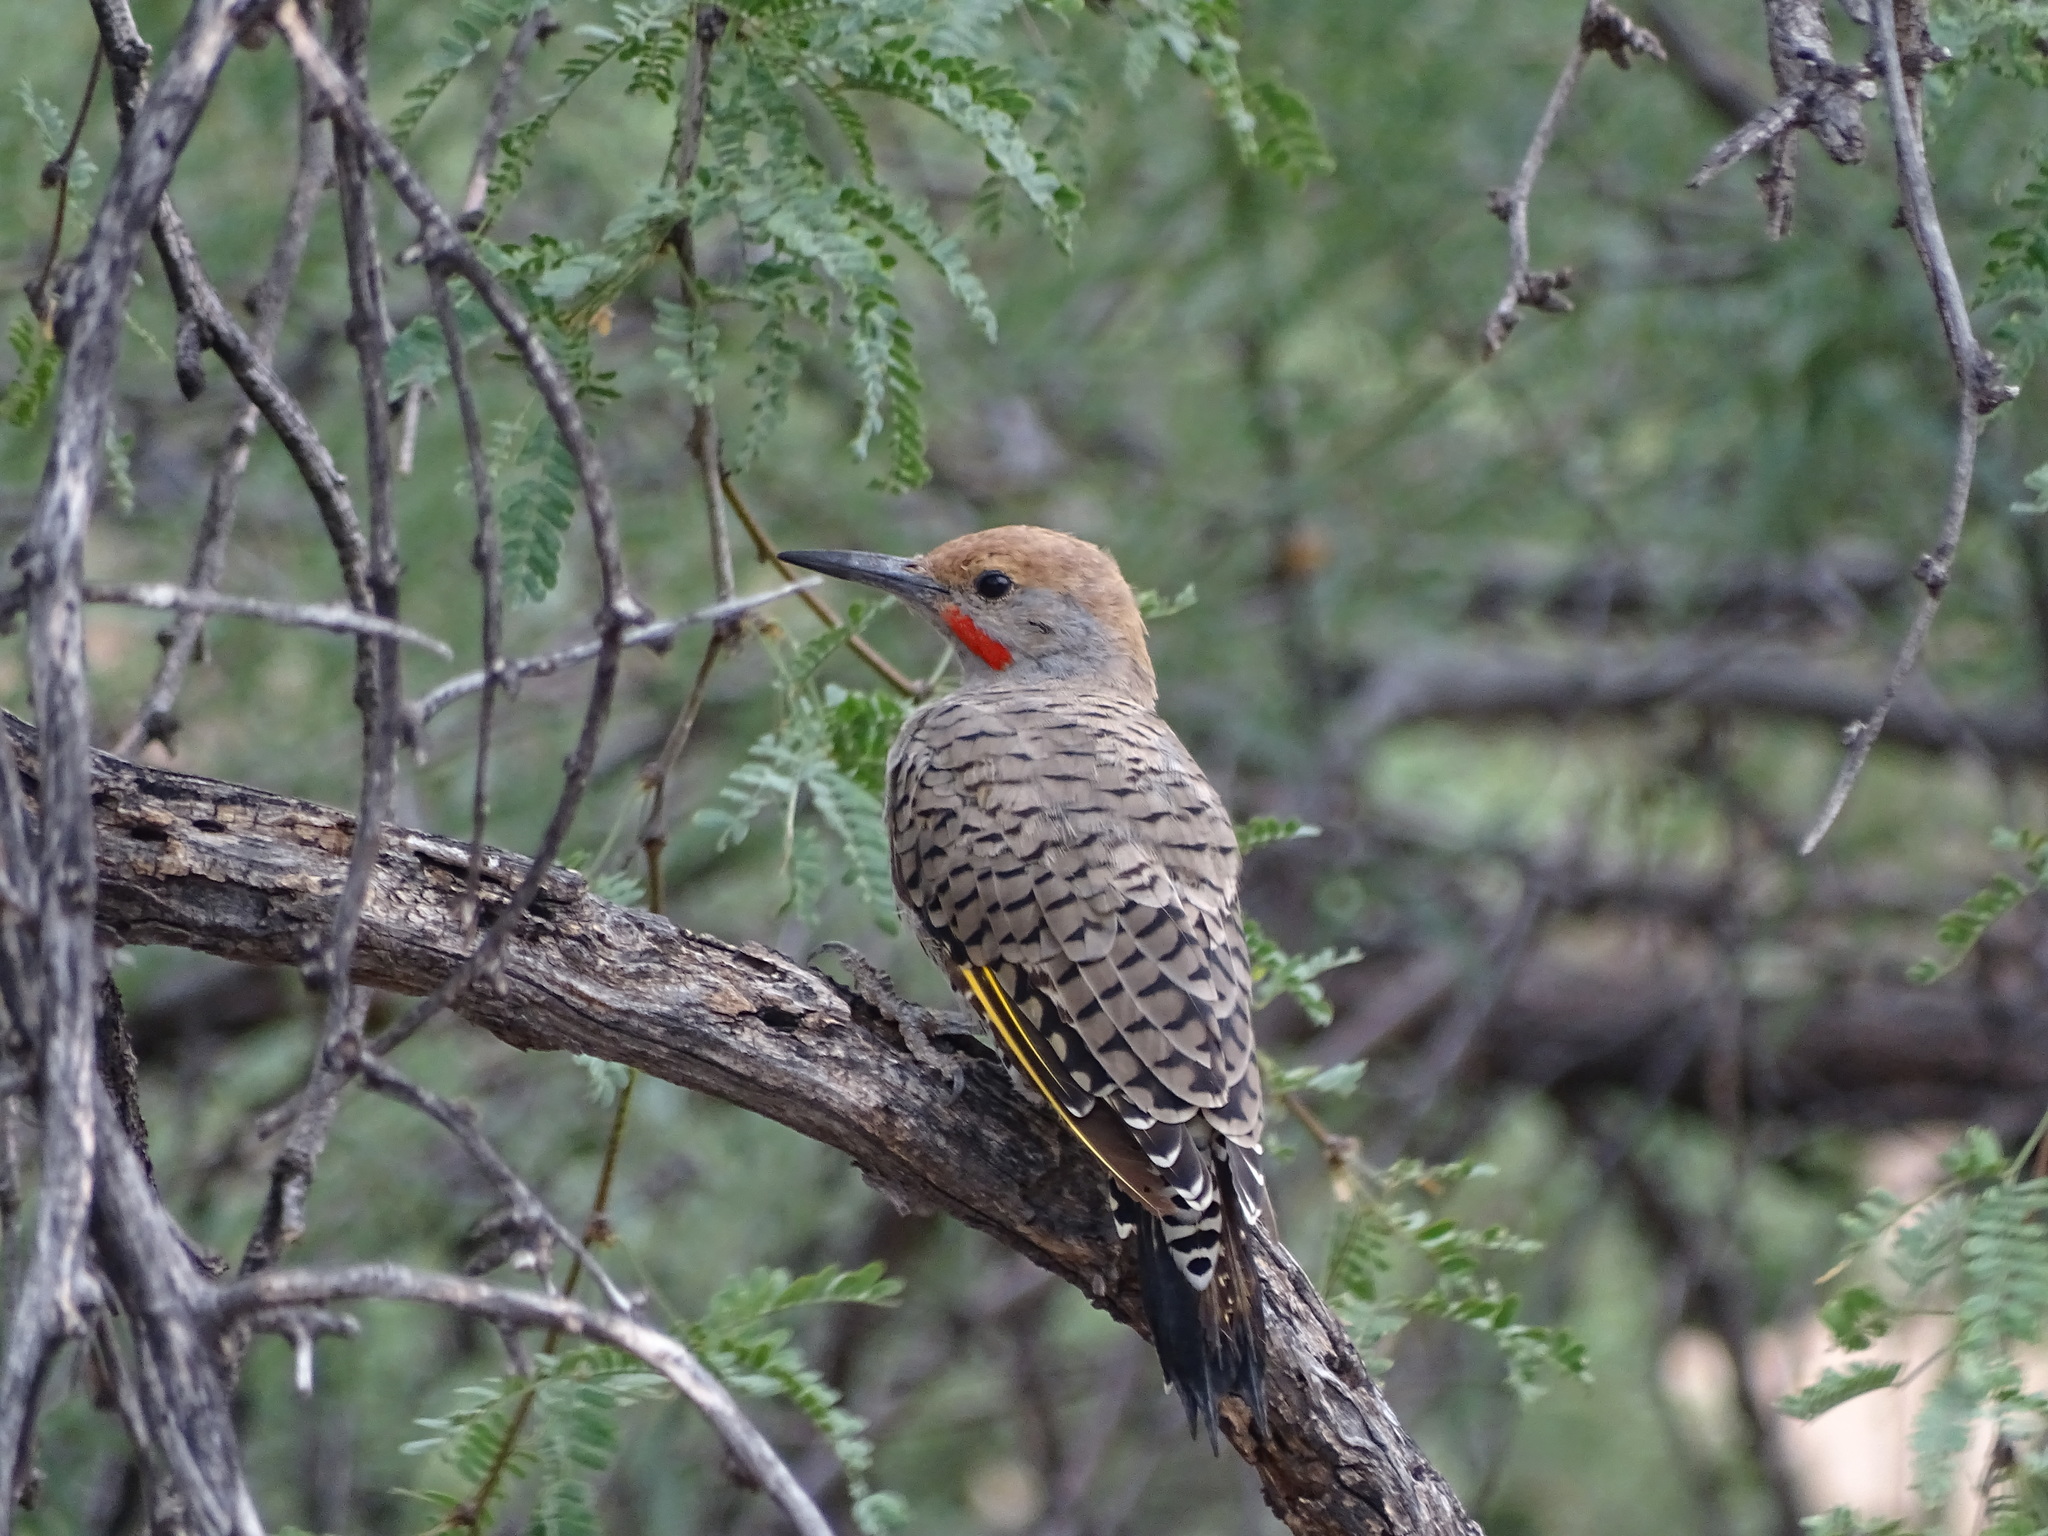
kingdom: Animalia
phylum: Chordata
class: Aves
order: Piciformes
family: Picidae
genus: Colaptes
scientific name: Colaptes chrysoides
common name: Gilded flicker
